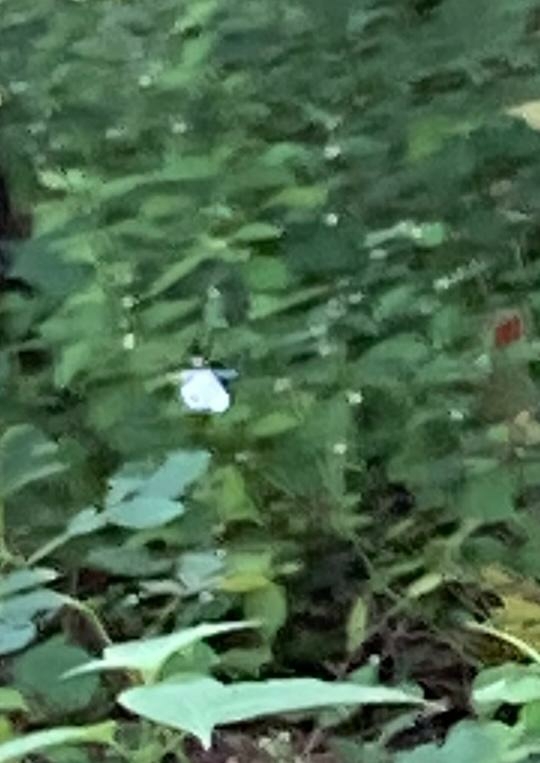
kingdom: Animalia
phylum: Arthropoda
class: Insecta
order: Lepidoptera
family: Pieridae
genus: Leptosia
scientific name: Leptosia nina
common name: Psyche
